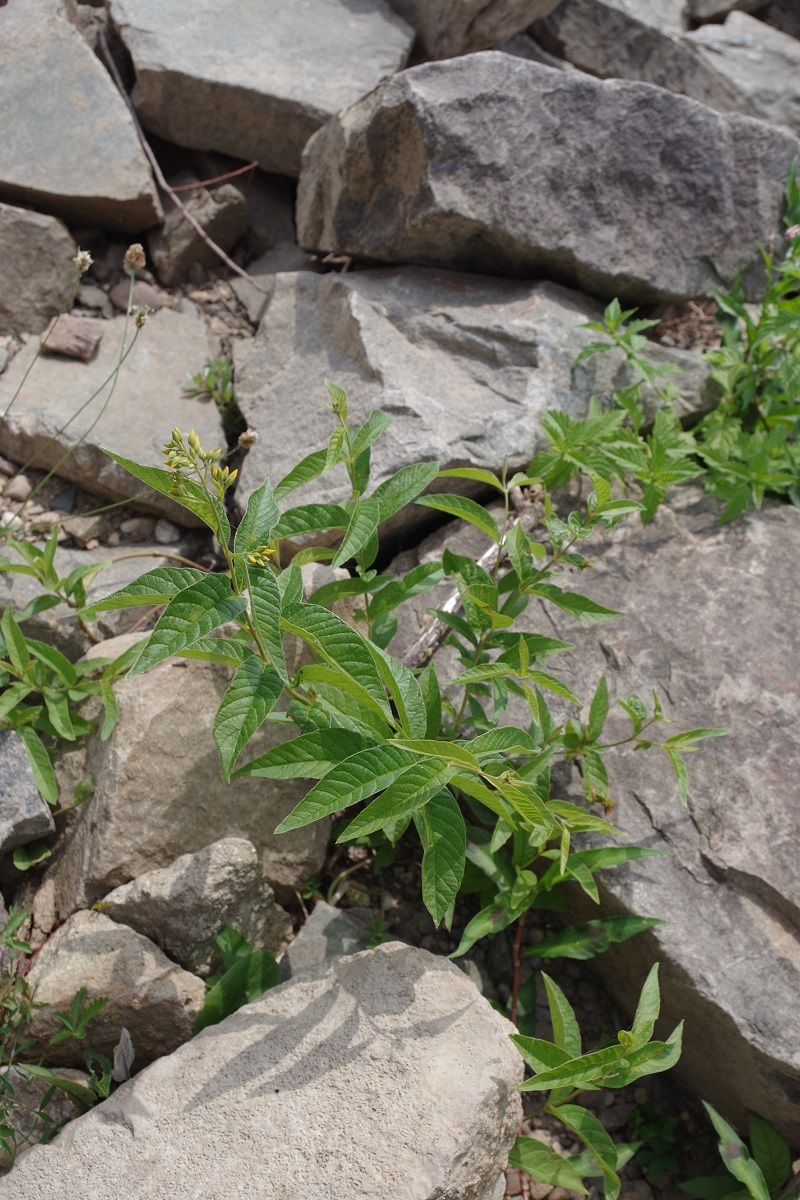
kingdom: Plantae
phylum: Tracheophyta
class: Magnoliopsida
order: Ericales
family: Primulaceae
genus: Lysimachia
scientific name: Lysimachia vulgaris
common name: Yellow loosestrife
